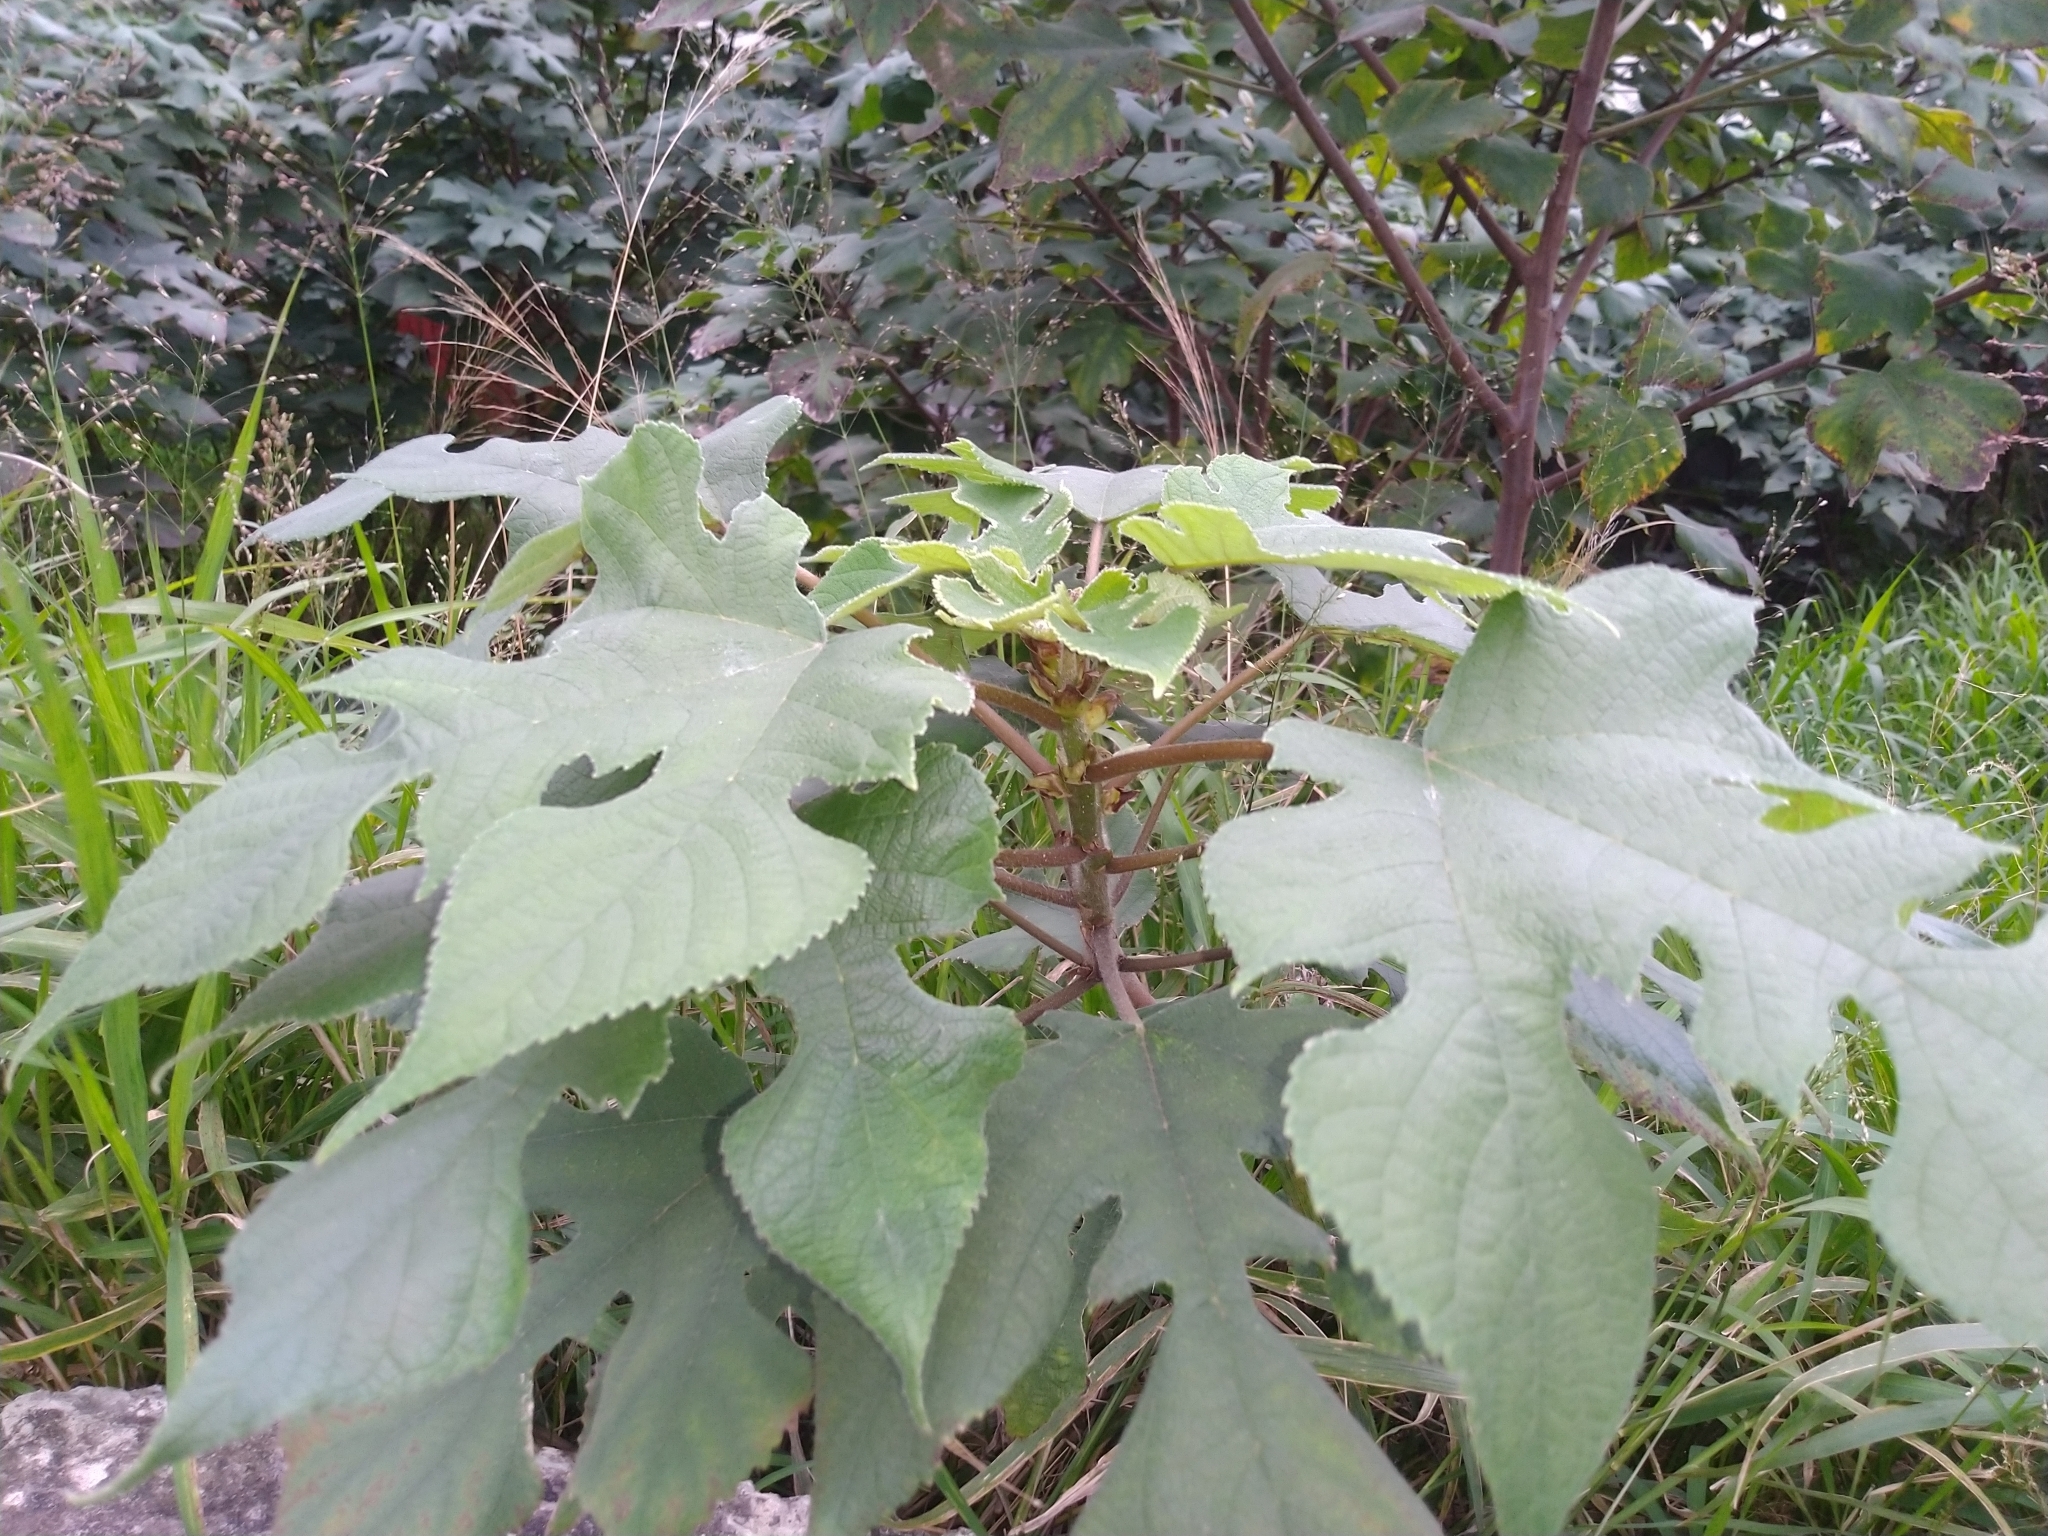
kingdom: Plantae
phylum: Tracheophyta
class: Magnoliopsida
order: Rosales
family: Moraceae
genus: Broussonetia
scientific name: Broussonetia papyrifera
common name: Paper mulberry
